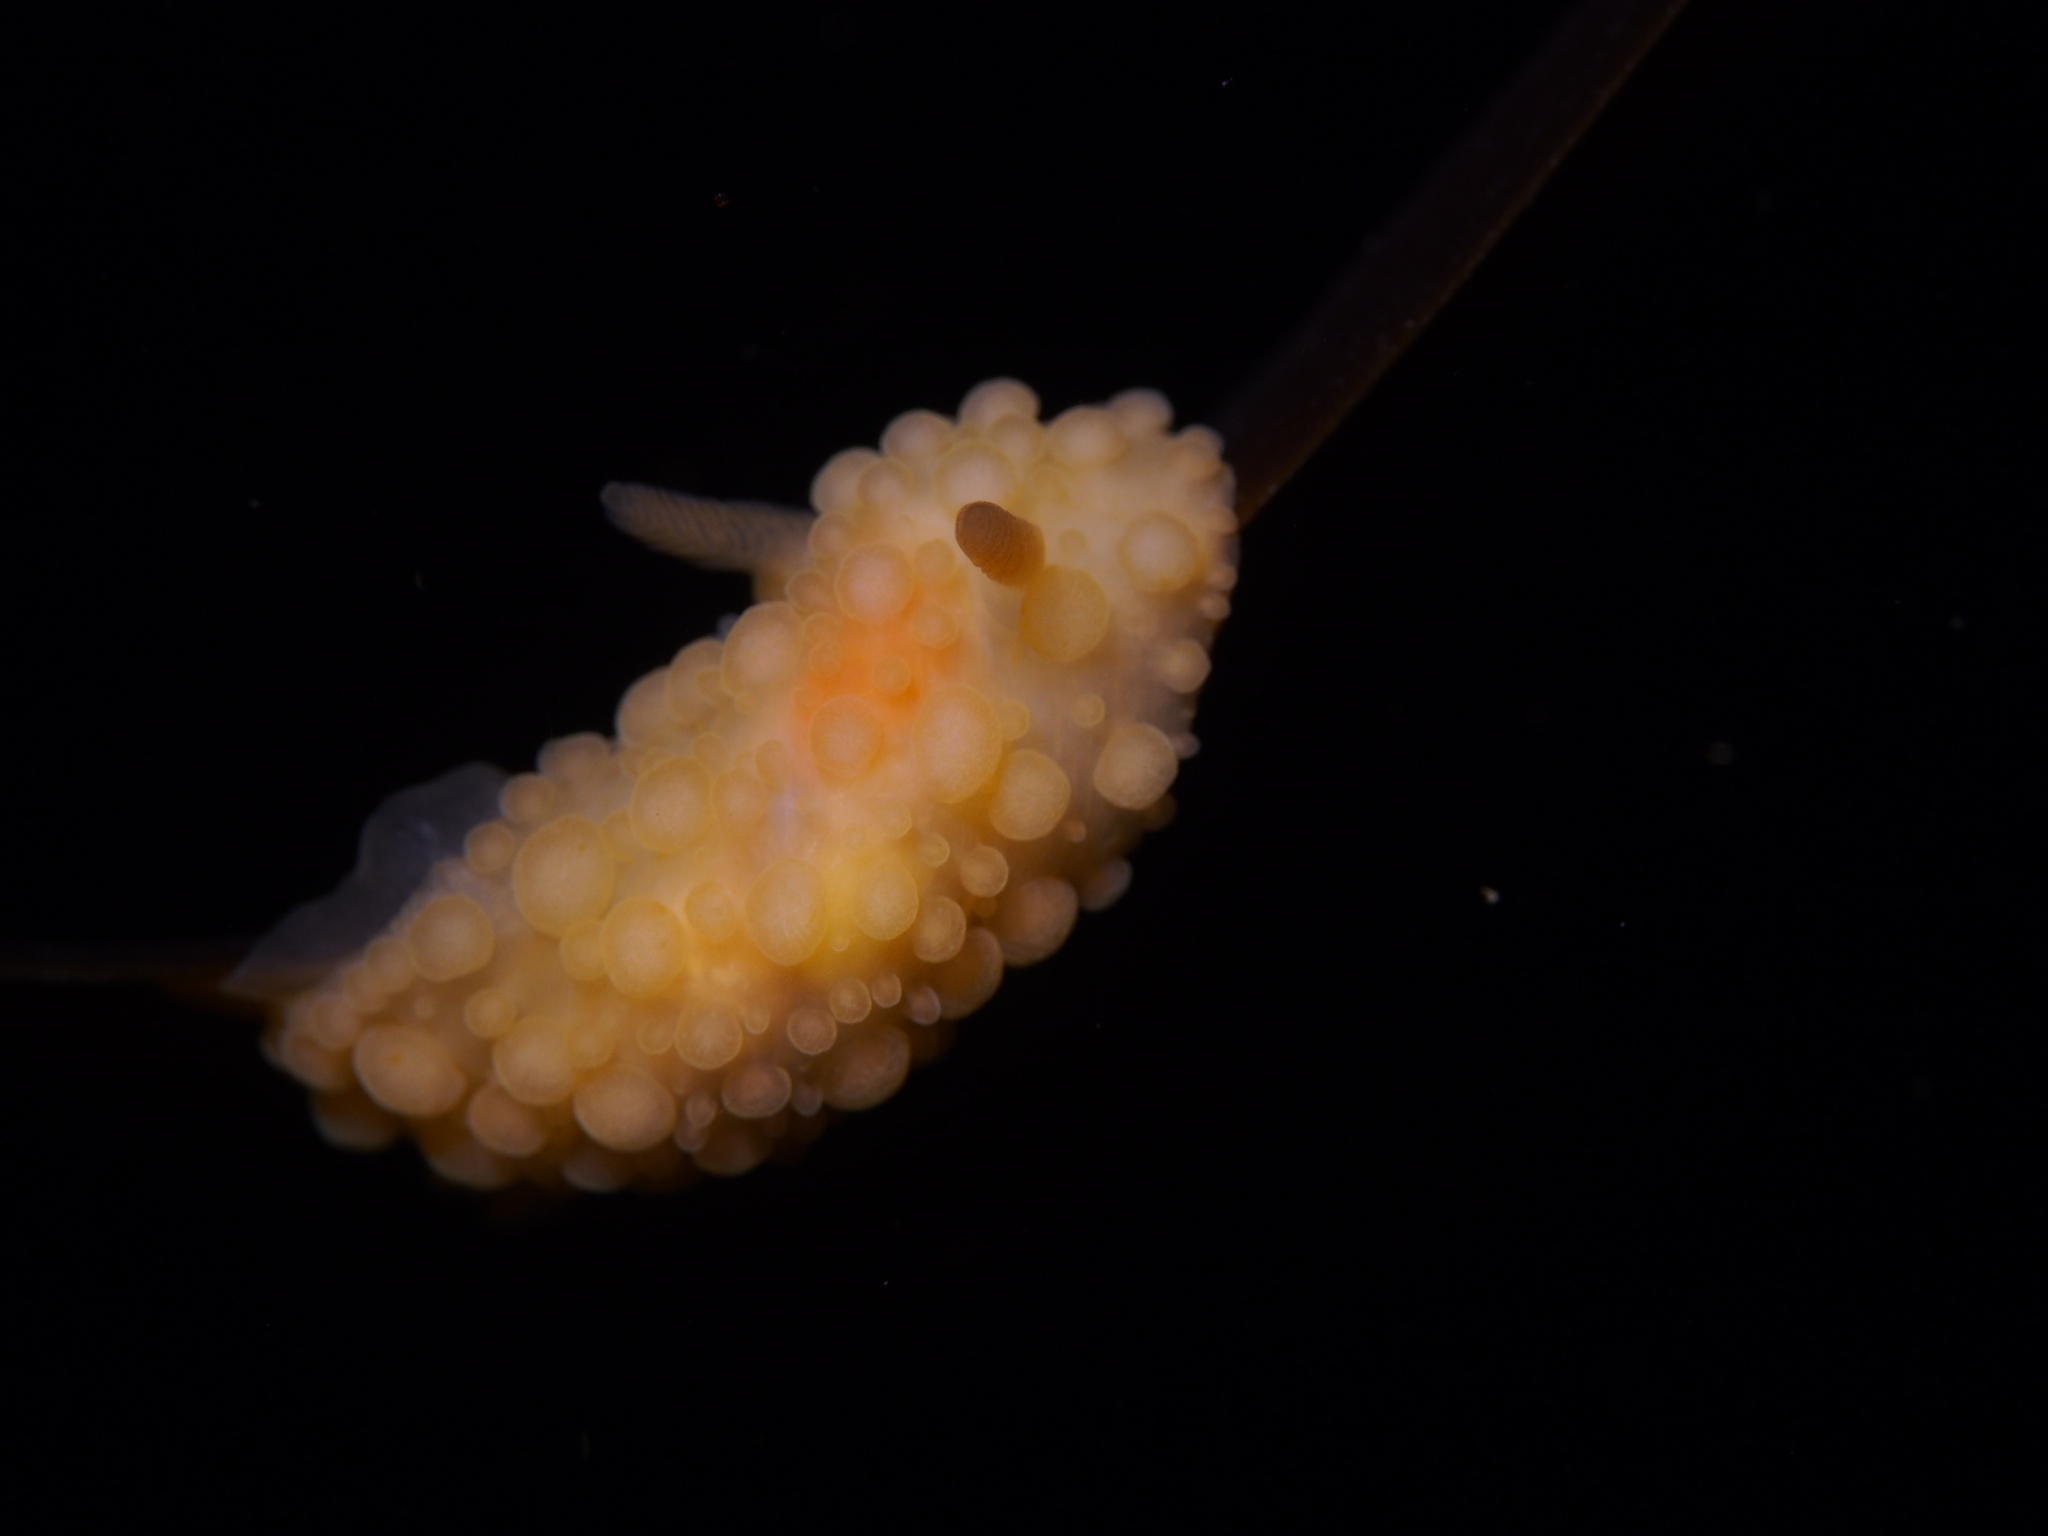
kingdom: Animalia
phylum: Mollusca
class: Gastropoda
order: Nudibranchia
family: Onchidorididae
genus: Adalaria
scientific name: Adalaria loveni
